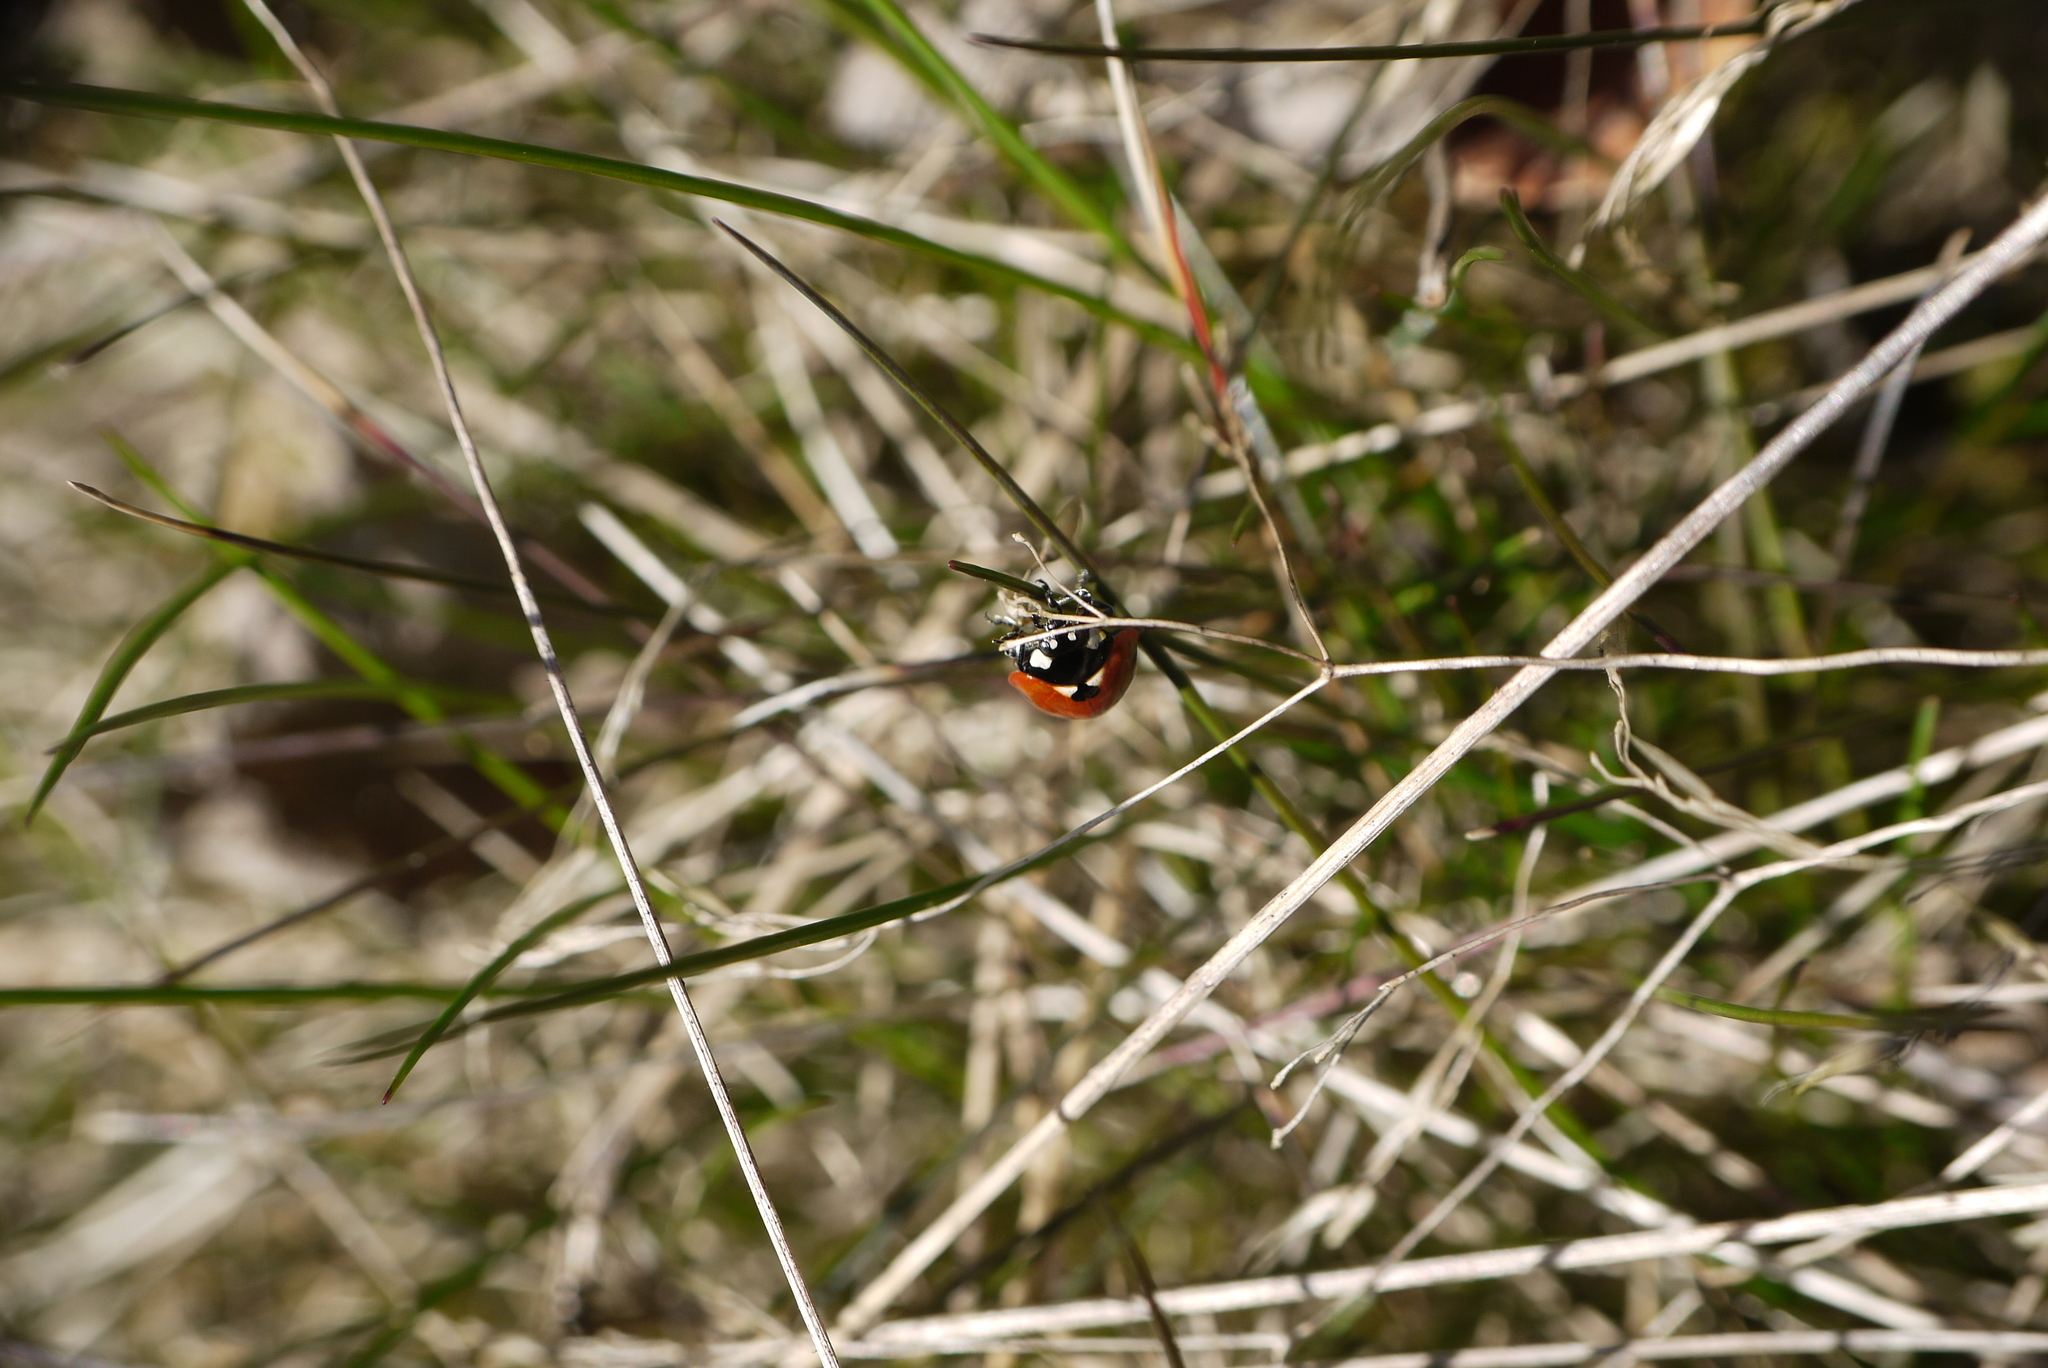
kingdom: Animalia
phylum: Arthropoda
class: Insecta
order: Coleoptera
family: Coccinellidae
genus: Coccinella
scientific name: Coccinella septempunctata
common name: Sevenspotted lady beetle
